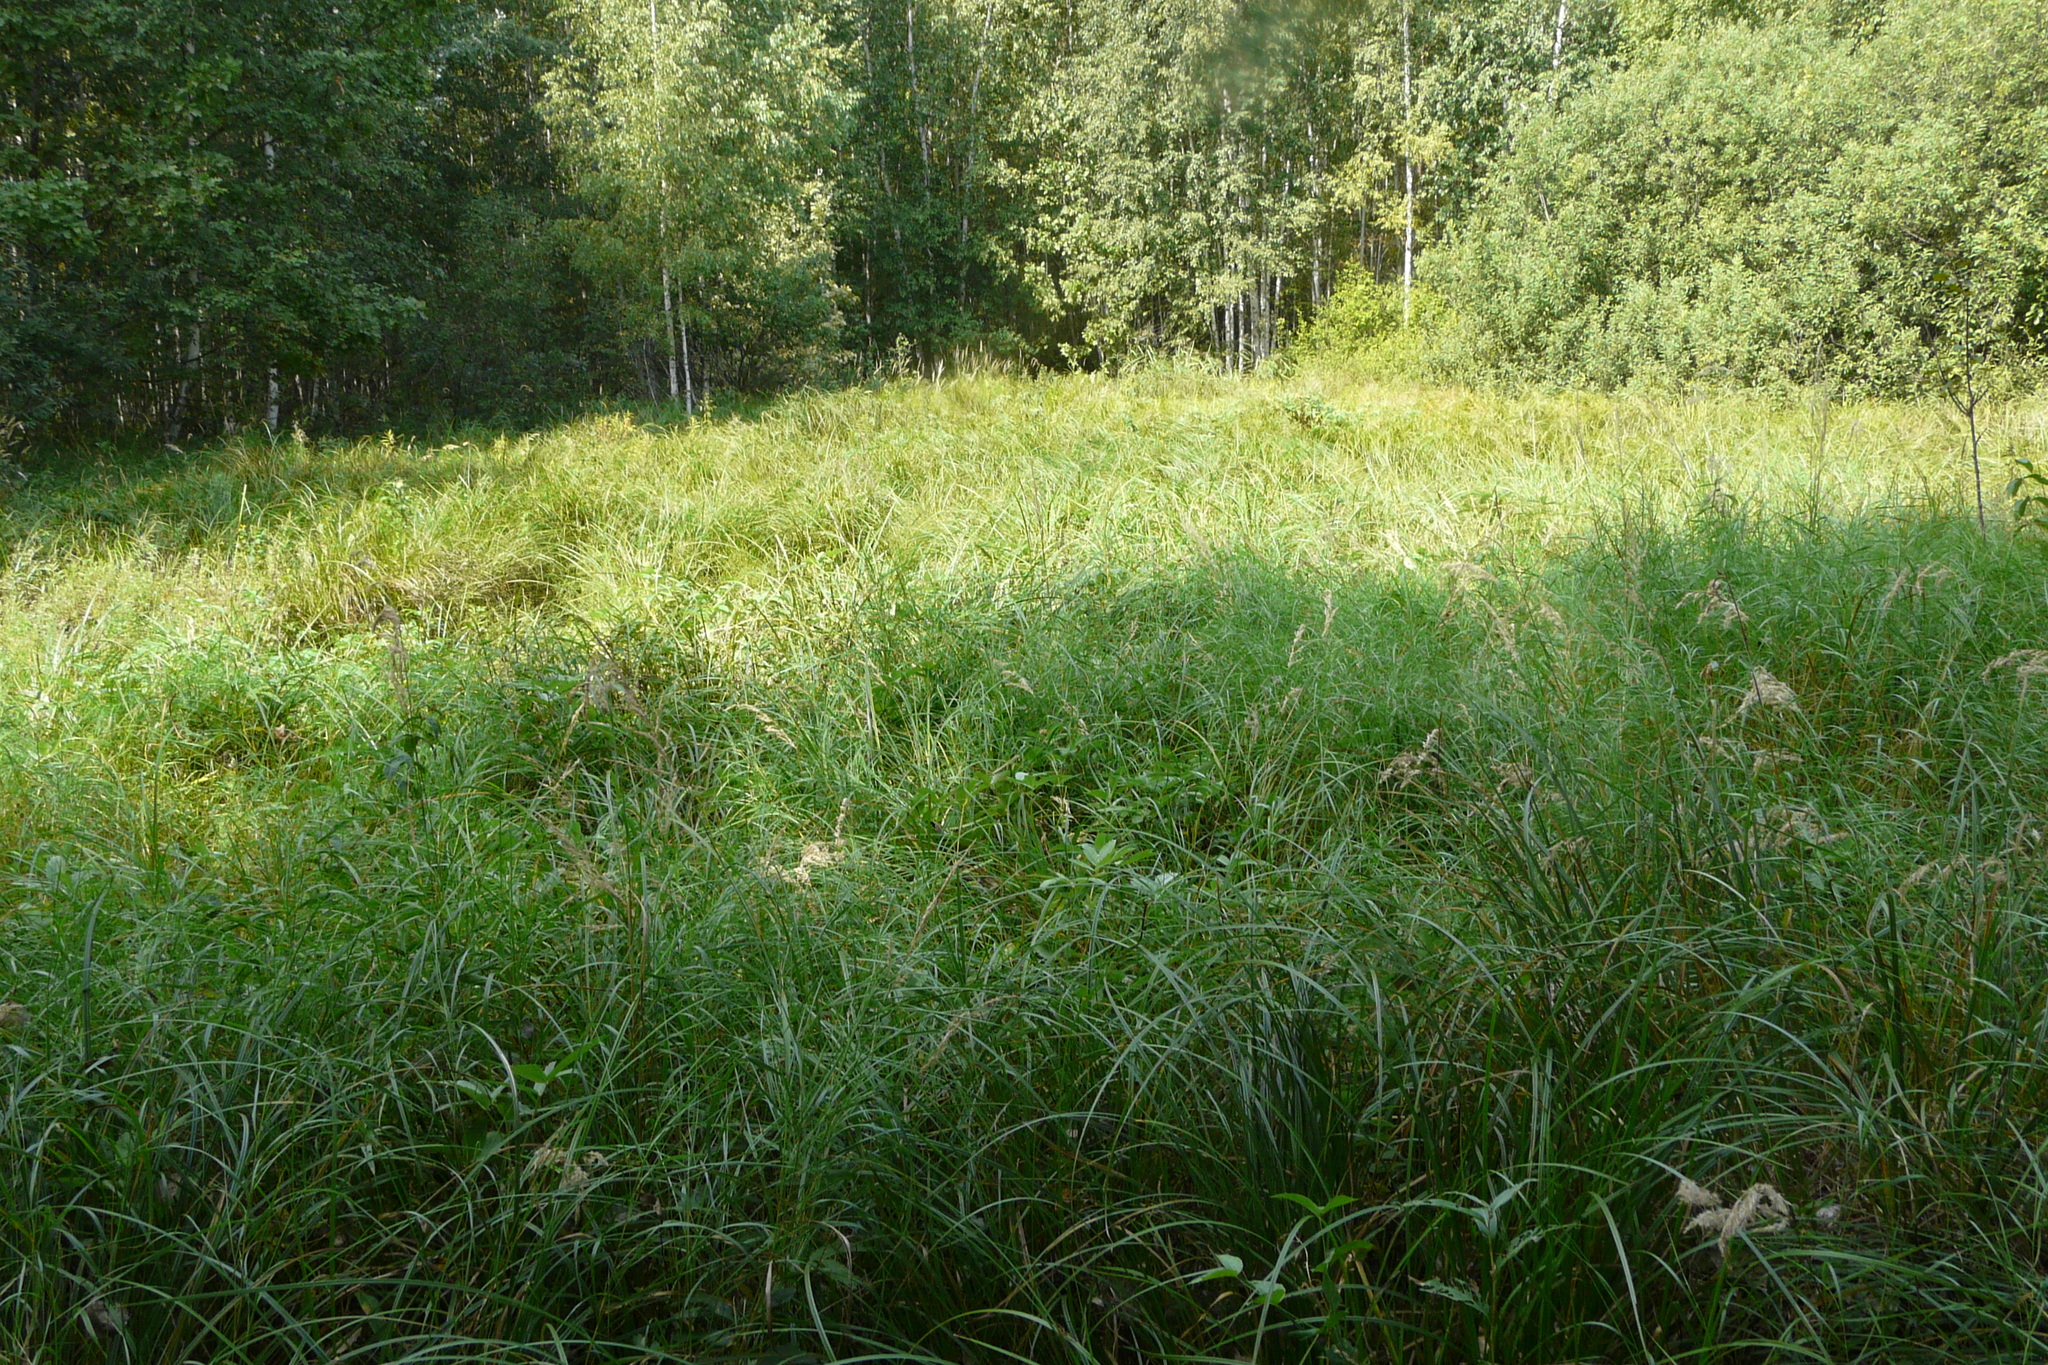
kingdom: Plantae
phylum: Tracheophyta
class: Liliopsida
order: Poales
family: Poaceae
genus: Molinia
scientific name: Molinia caerulea
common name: Purple moor-grass
